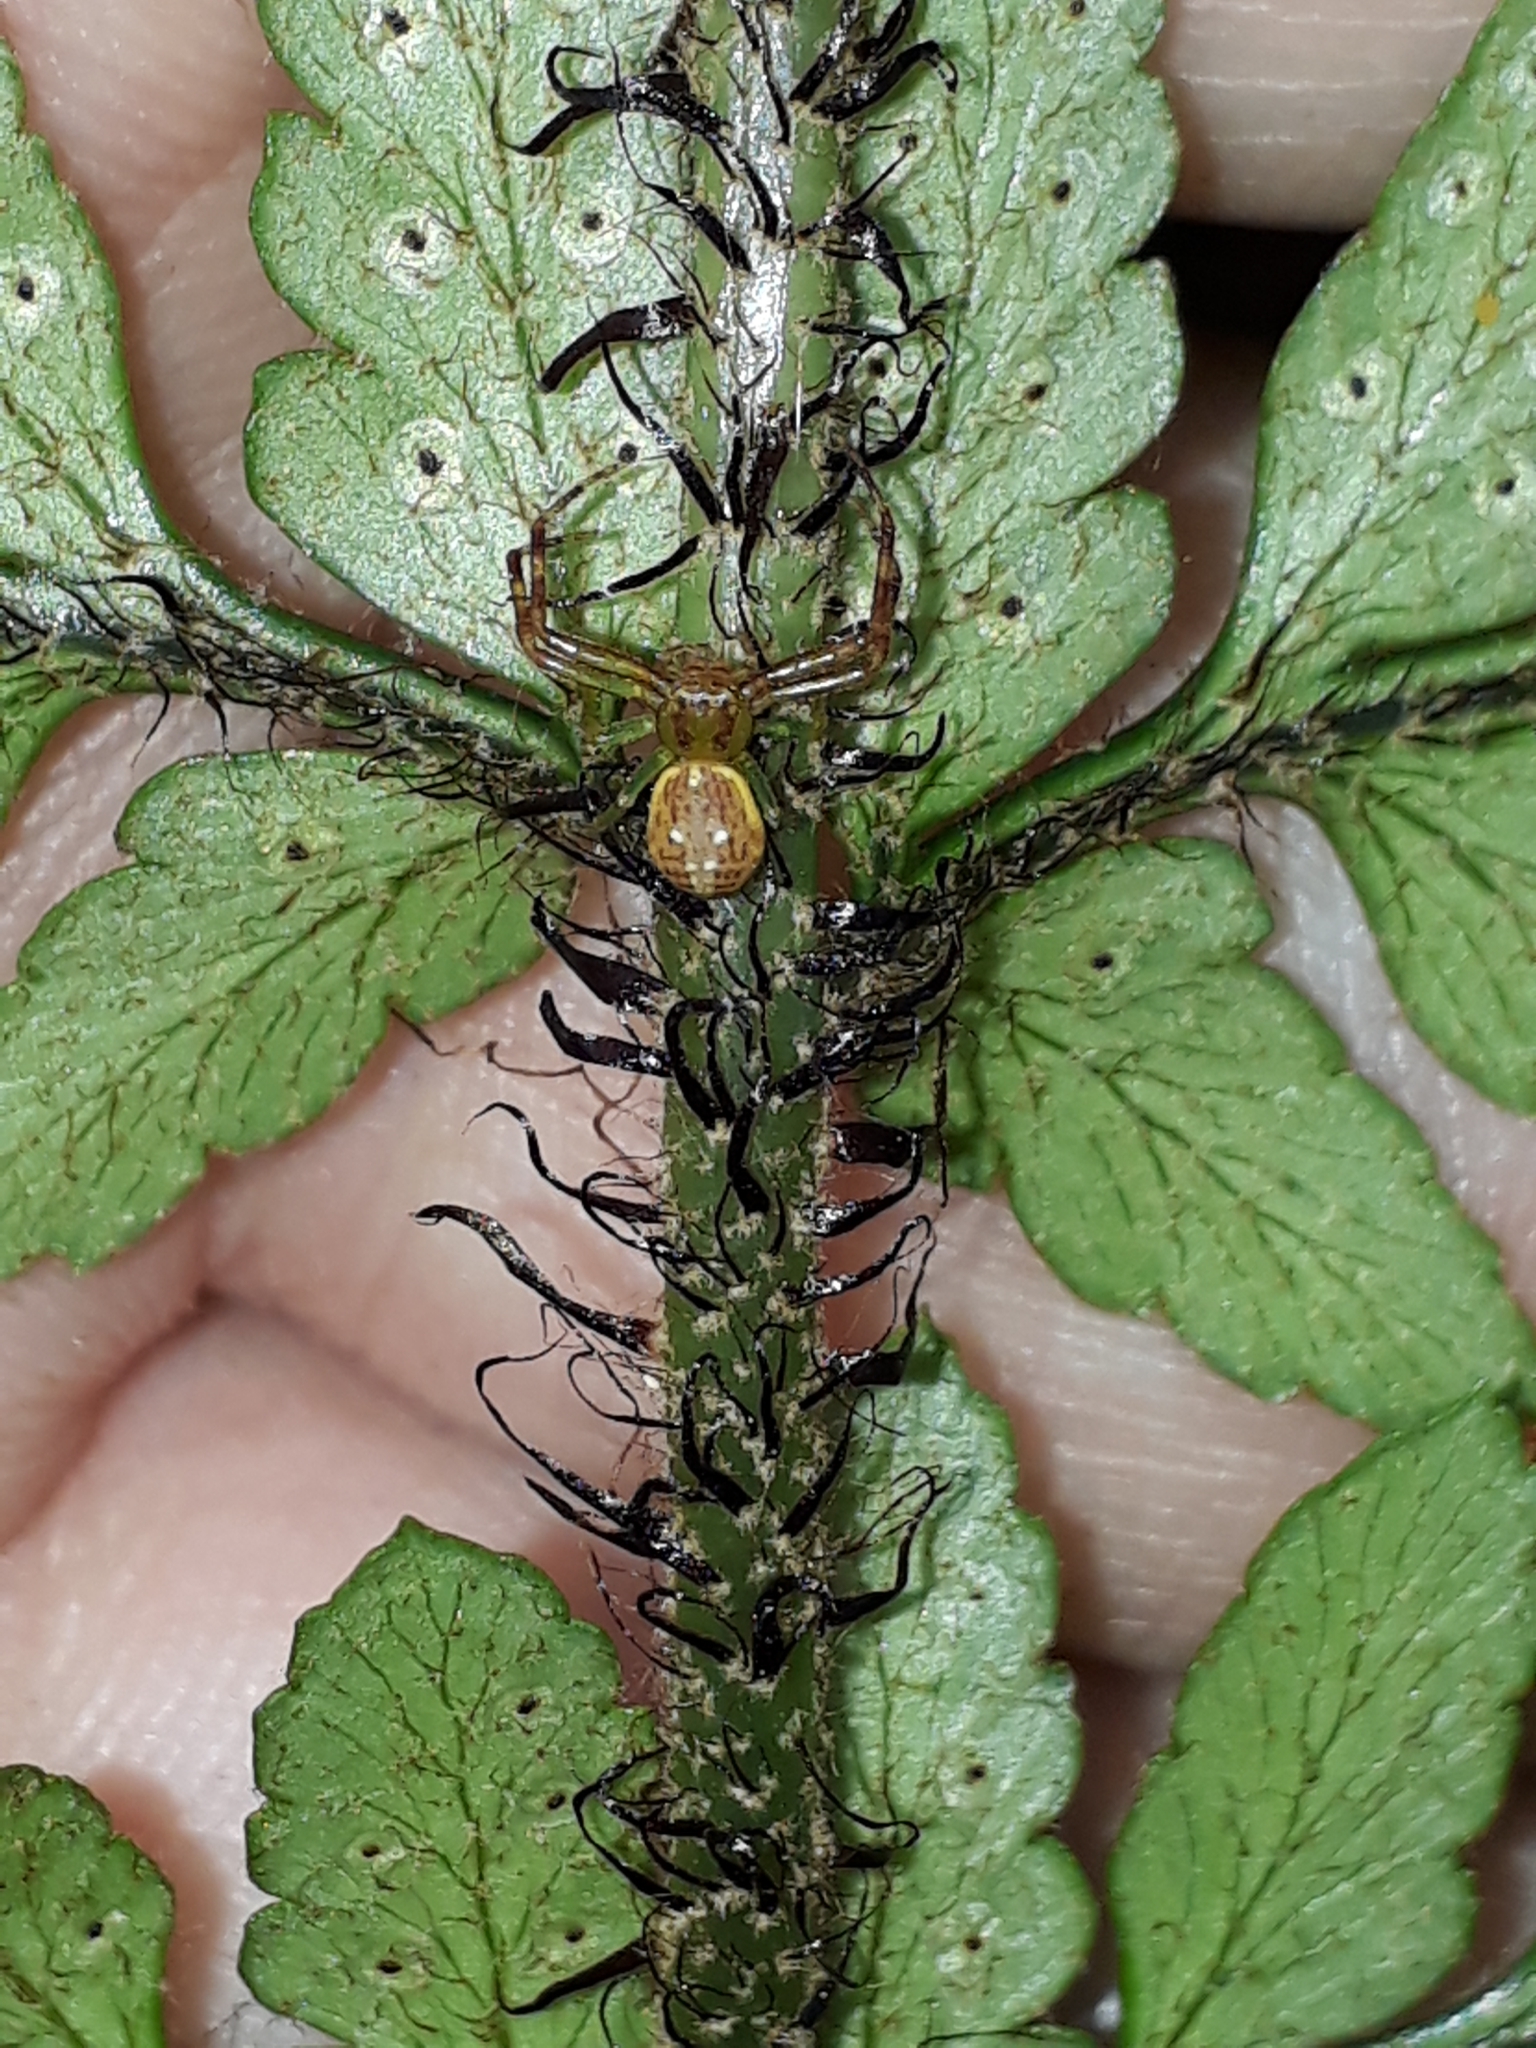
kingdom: Animalia
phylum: Arthropoda
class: Arachnida
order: Araneae
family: Thomisidae
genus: Diaea
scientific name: Diaea ambara
